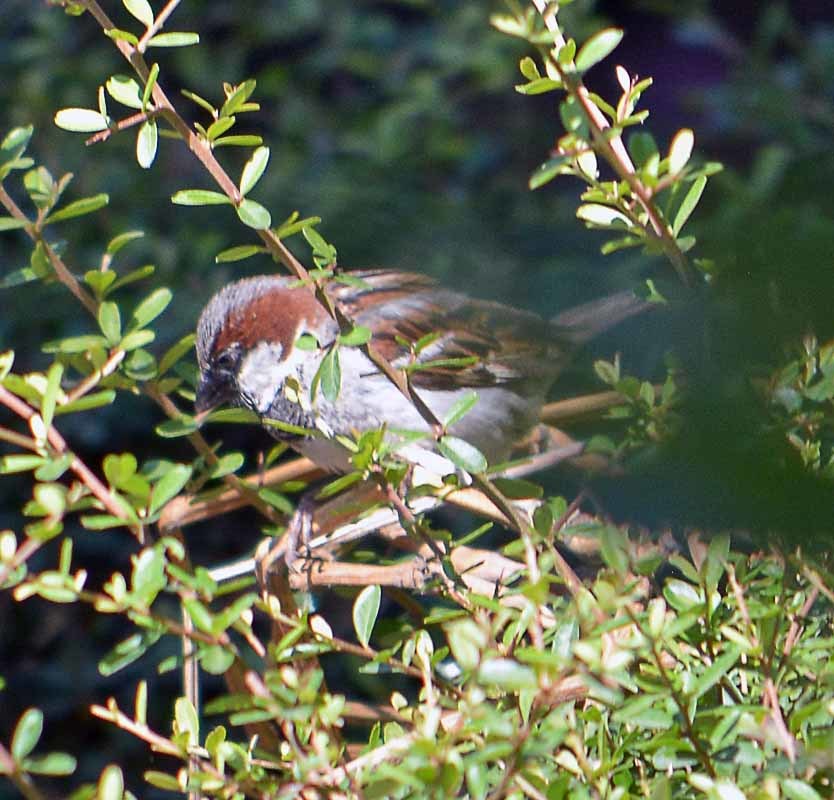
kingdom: Animalia
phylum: Chordata
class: Aves
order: Passeriformes
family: Passeridae
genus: Passer
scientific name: Passer domesticus
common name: House sparrow
